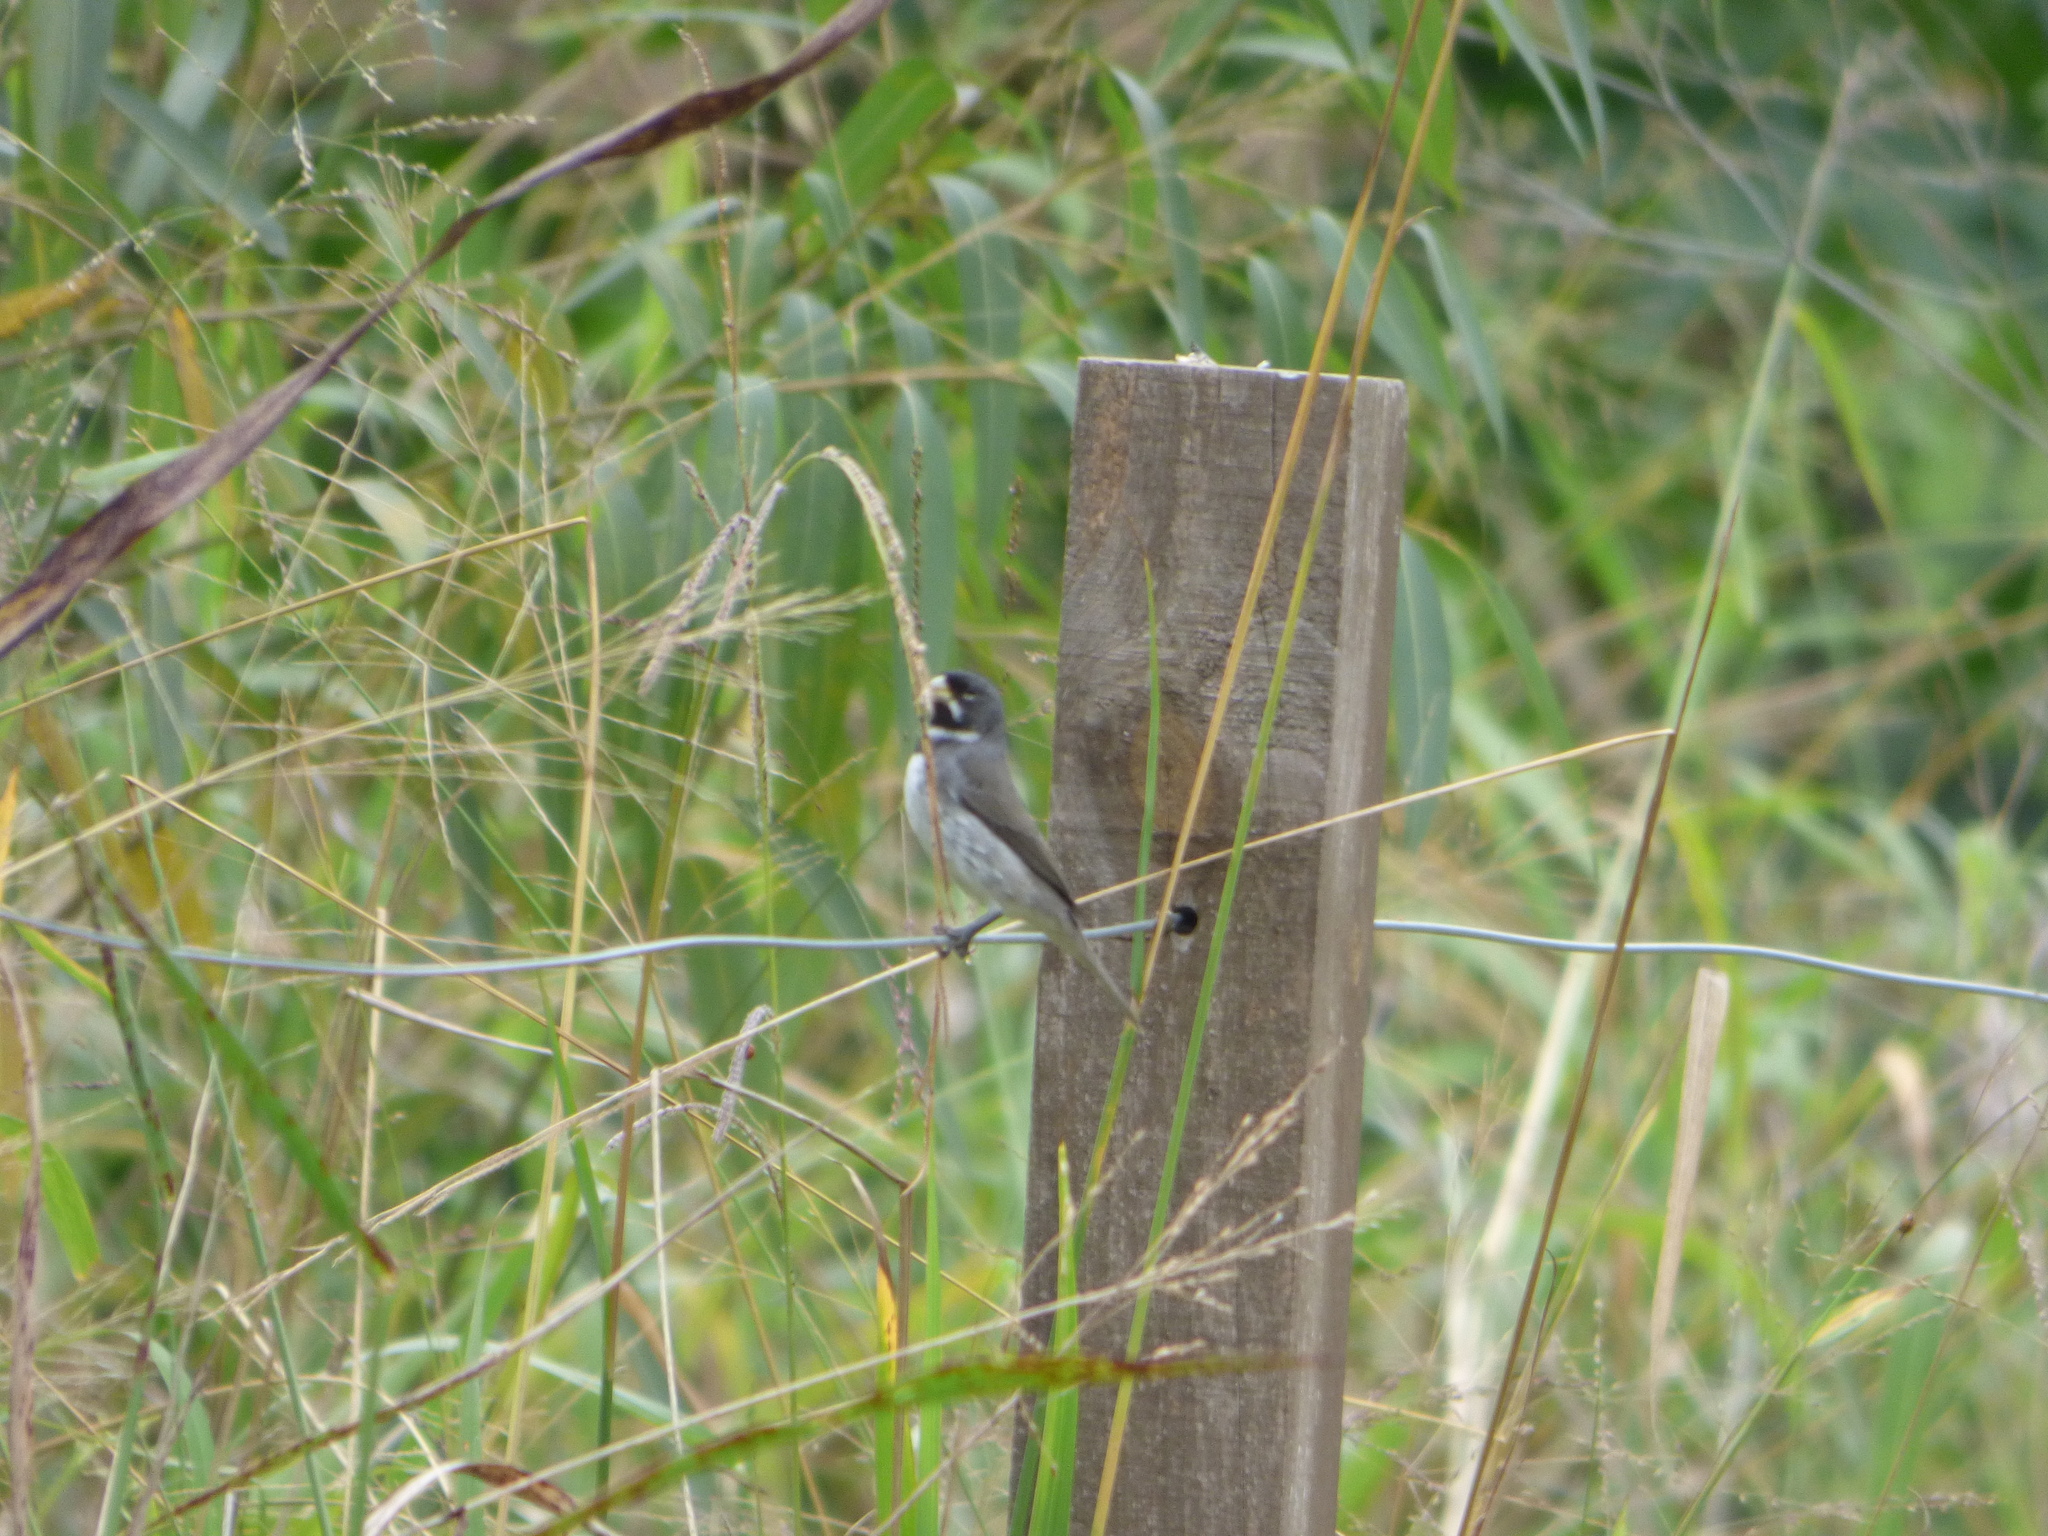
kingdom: Animalia
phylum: Chordata
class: Aves
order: Passeriformes
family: Thraupidae
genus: Sporophila
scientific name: Sporophila caerulescens
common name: Double-collared seedeater
